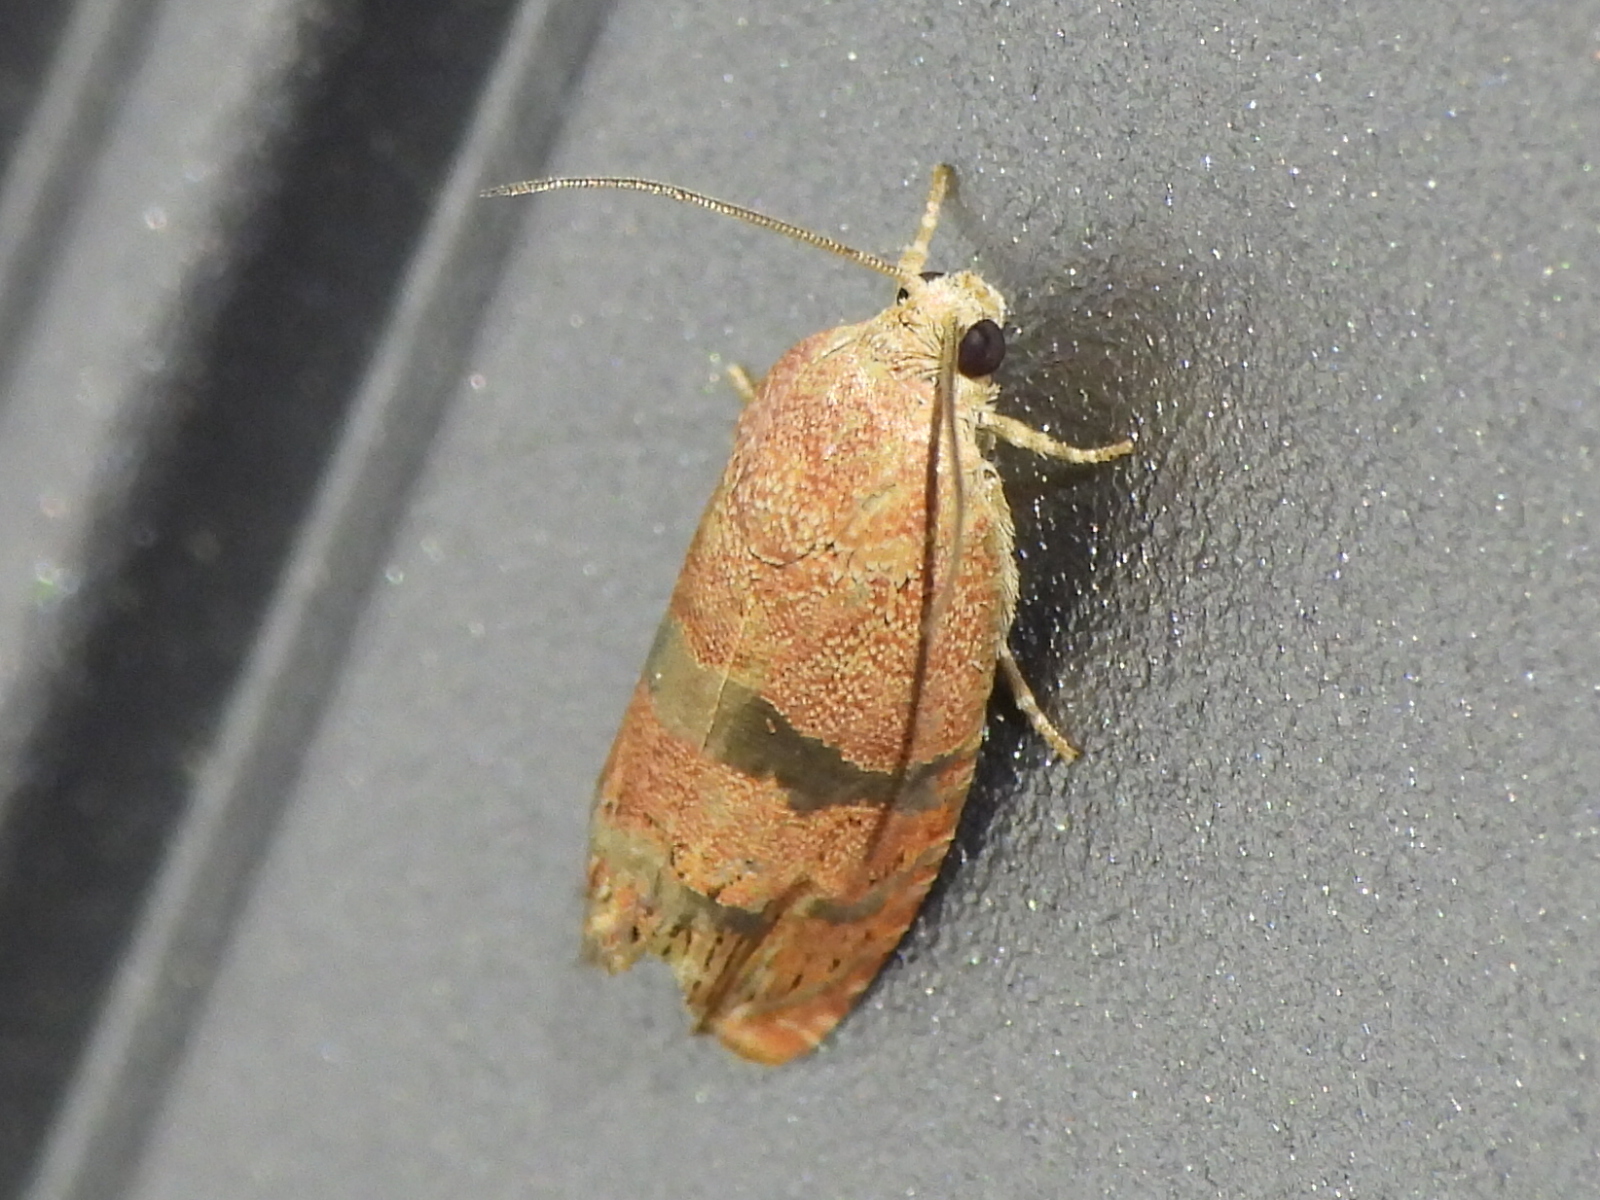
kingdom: Animalia
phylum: Arthropoda
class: Insecta
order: Lepidoptera
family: Tortricidae
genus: Cydia
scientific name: Cydia latiferreana
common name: Filbertworm moth
